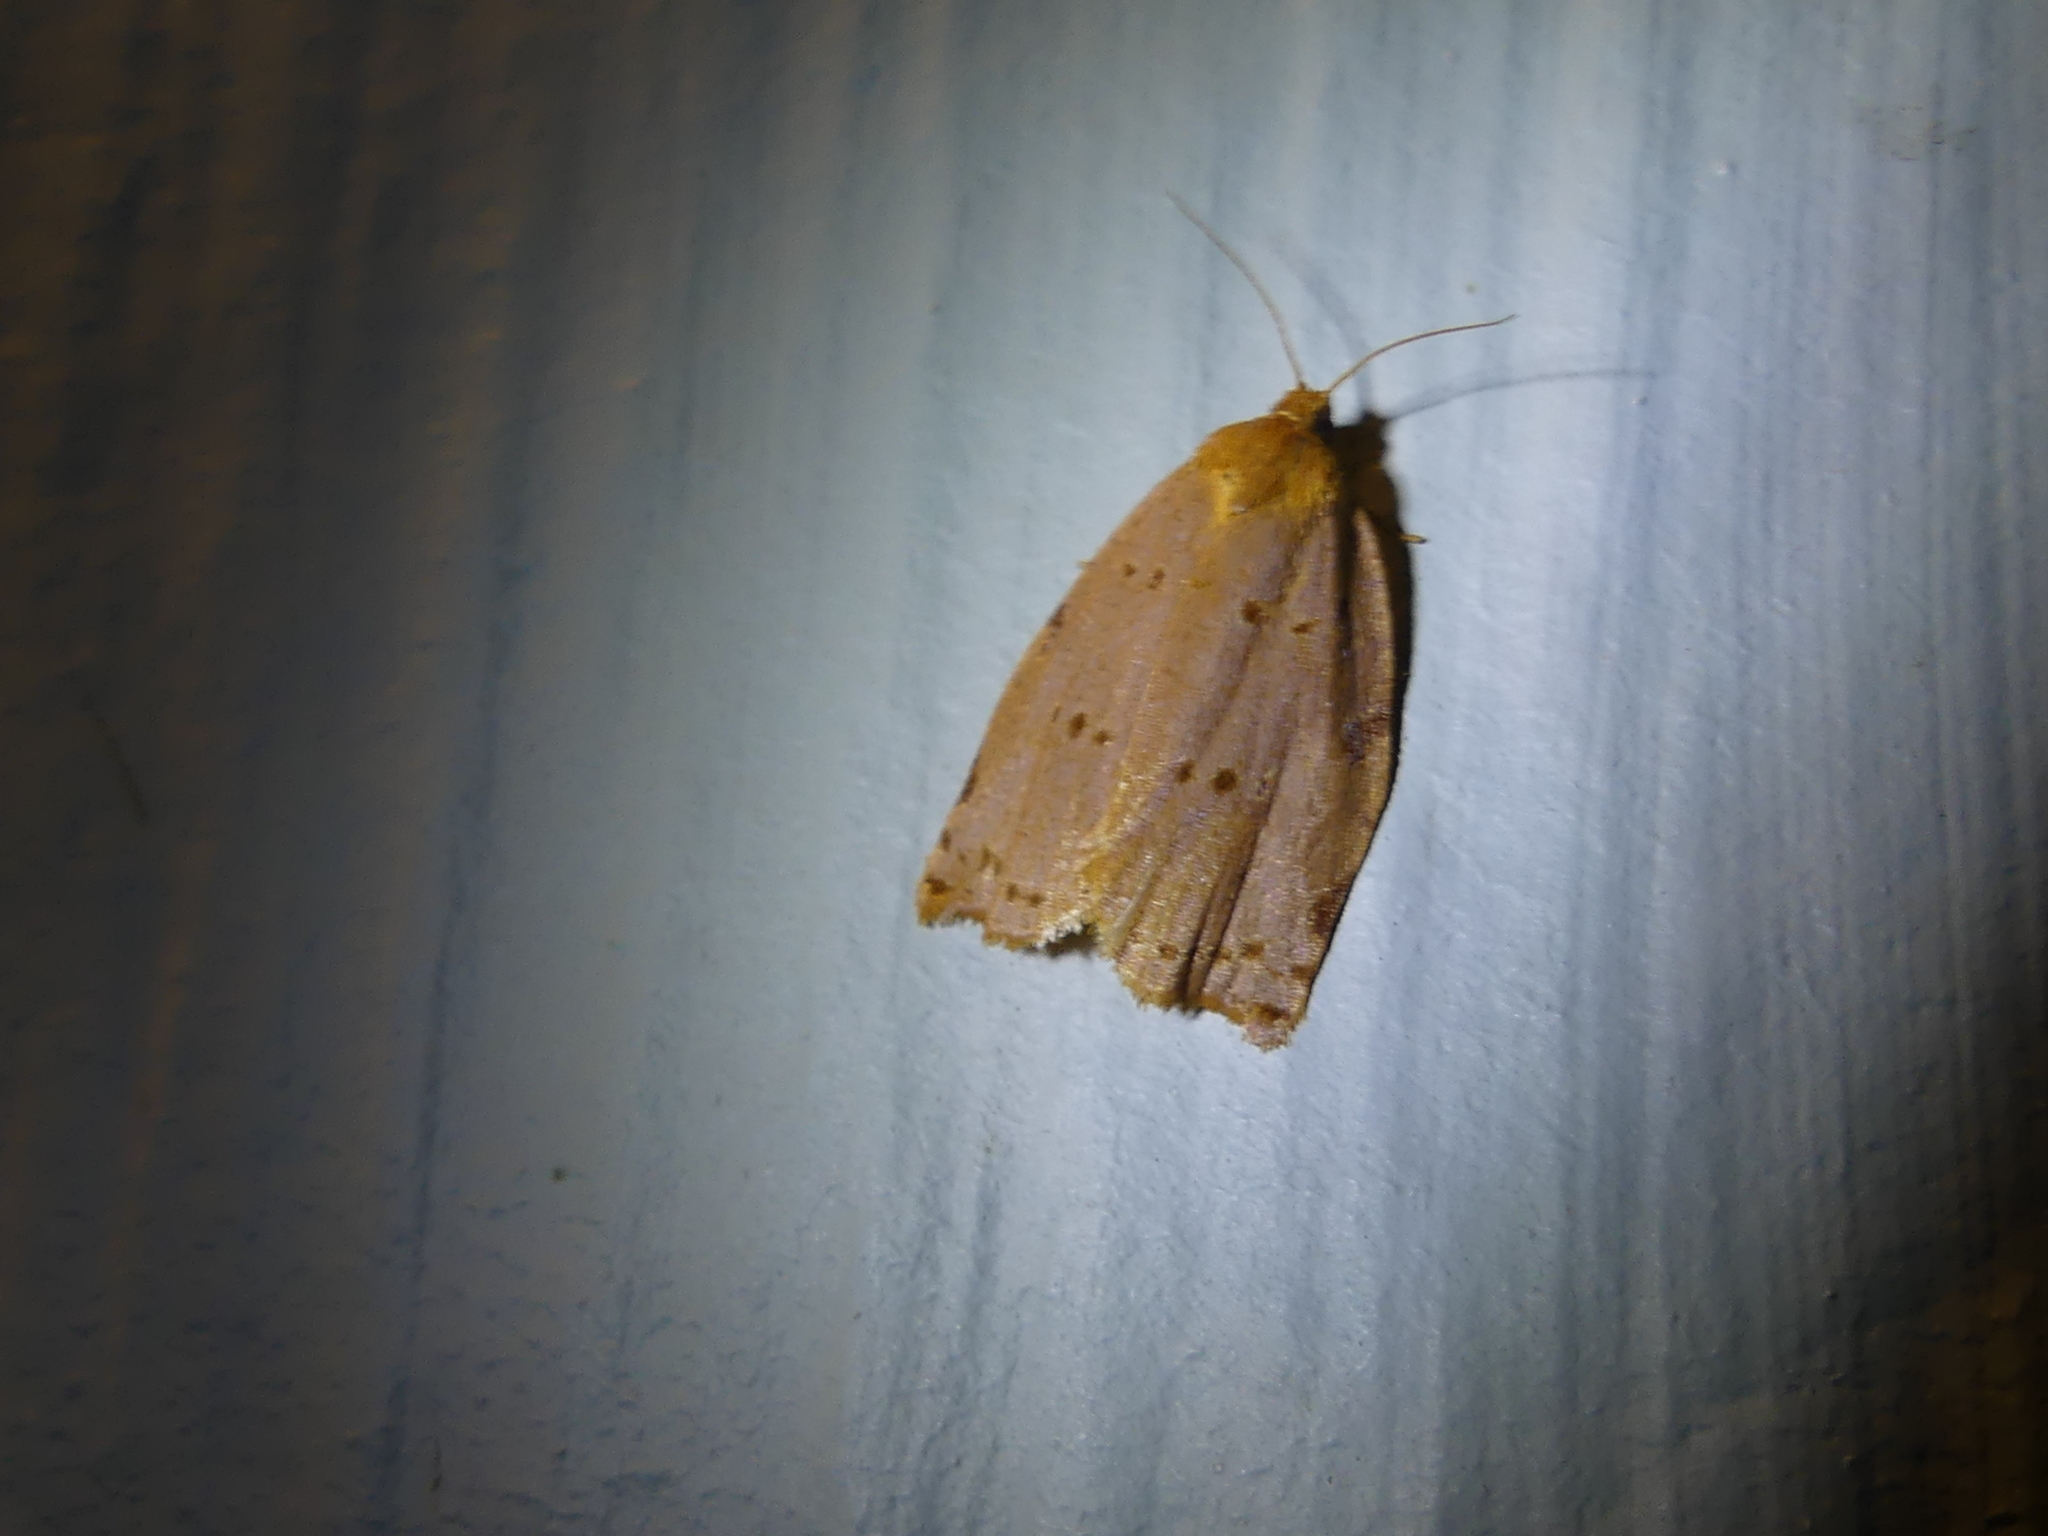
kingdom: Animalia
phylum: Arthropoda
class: Insecta
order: Lepidoptera
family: Tortricidae
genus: Archips
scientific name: Archips rileyana
